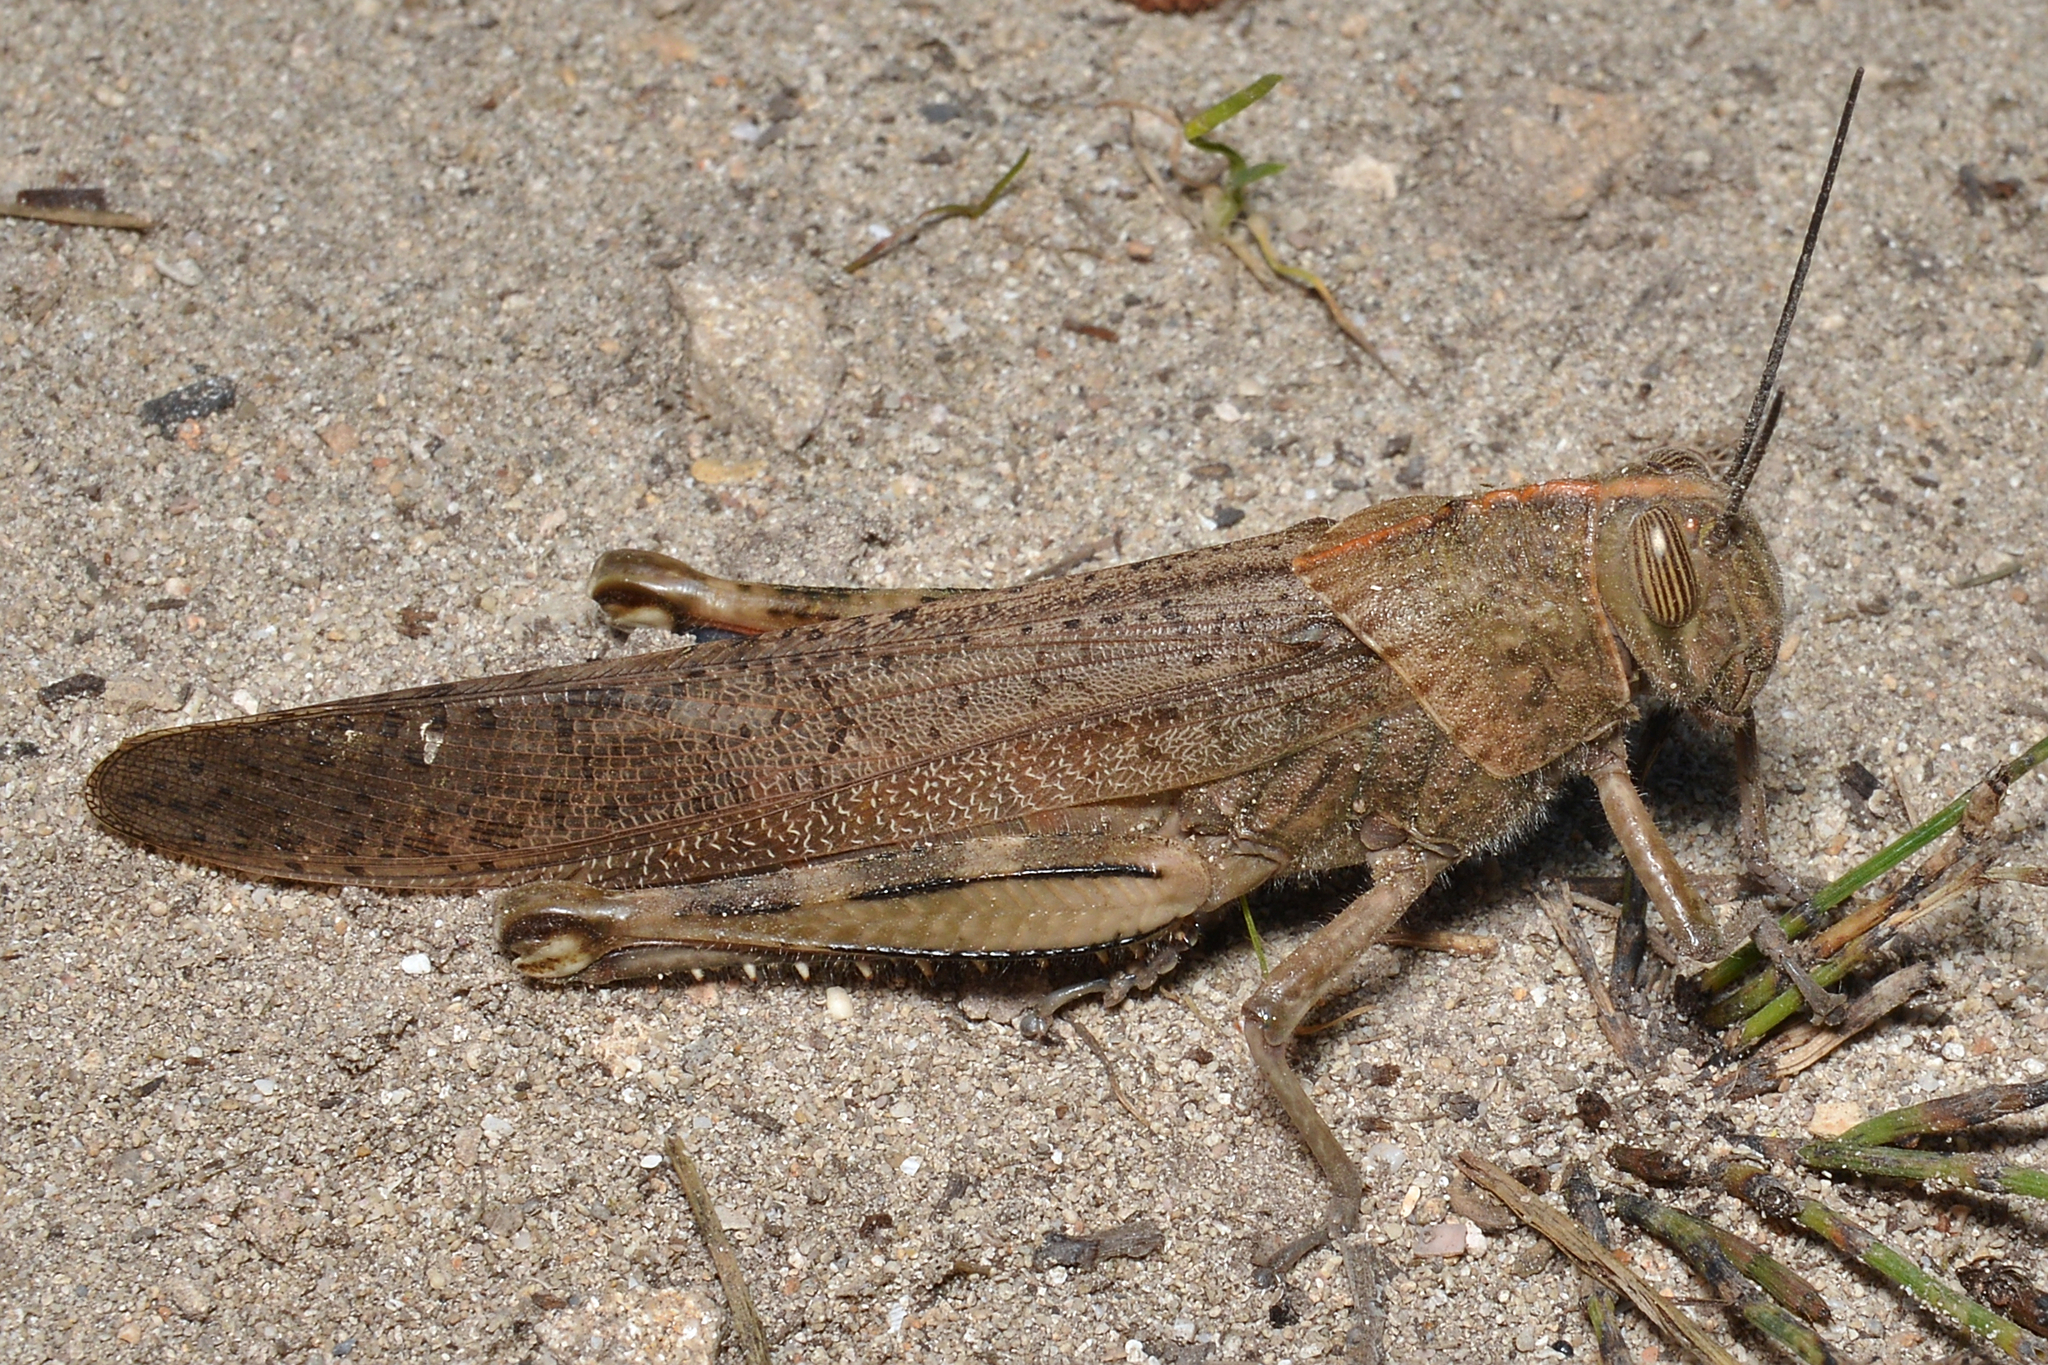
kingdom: Animalia
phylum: Arthropoda
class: Insecta
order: Orthoptera
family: Acrididae
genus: Anacridium
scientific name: Anacridium aegyptium
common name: Egyptian grasshopper
